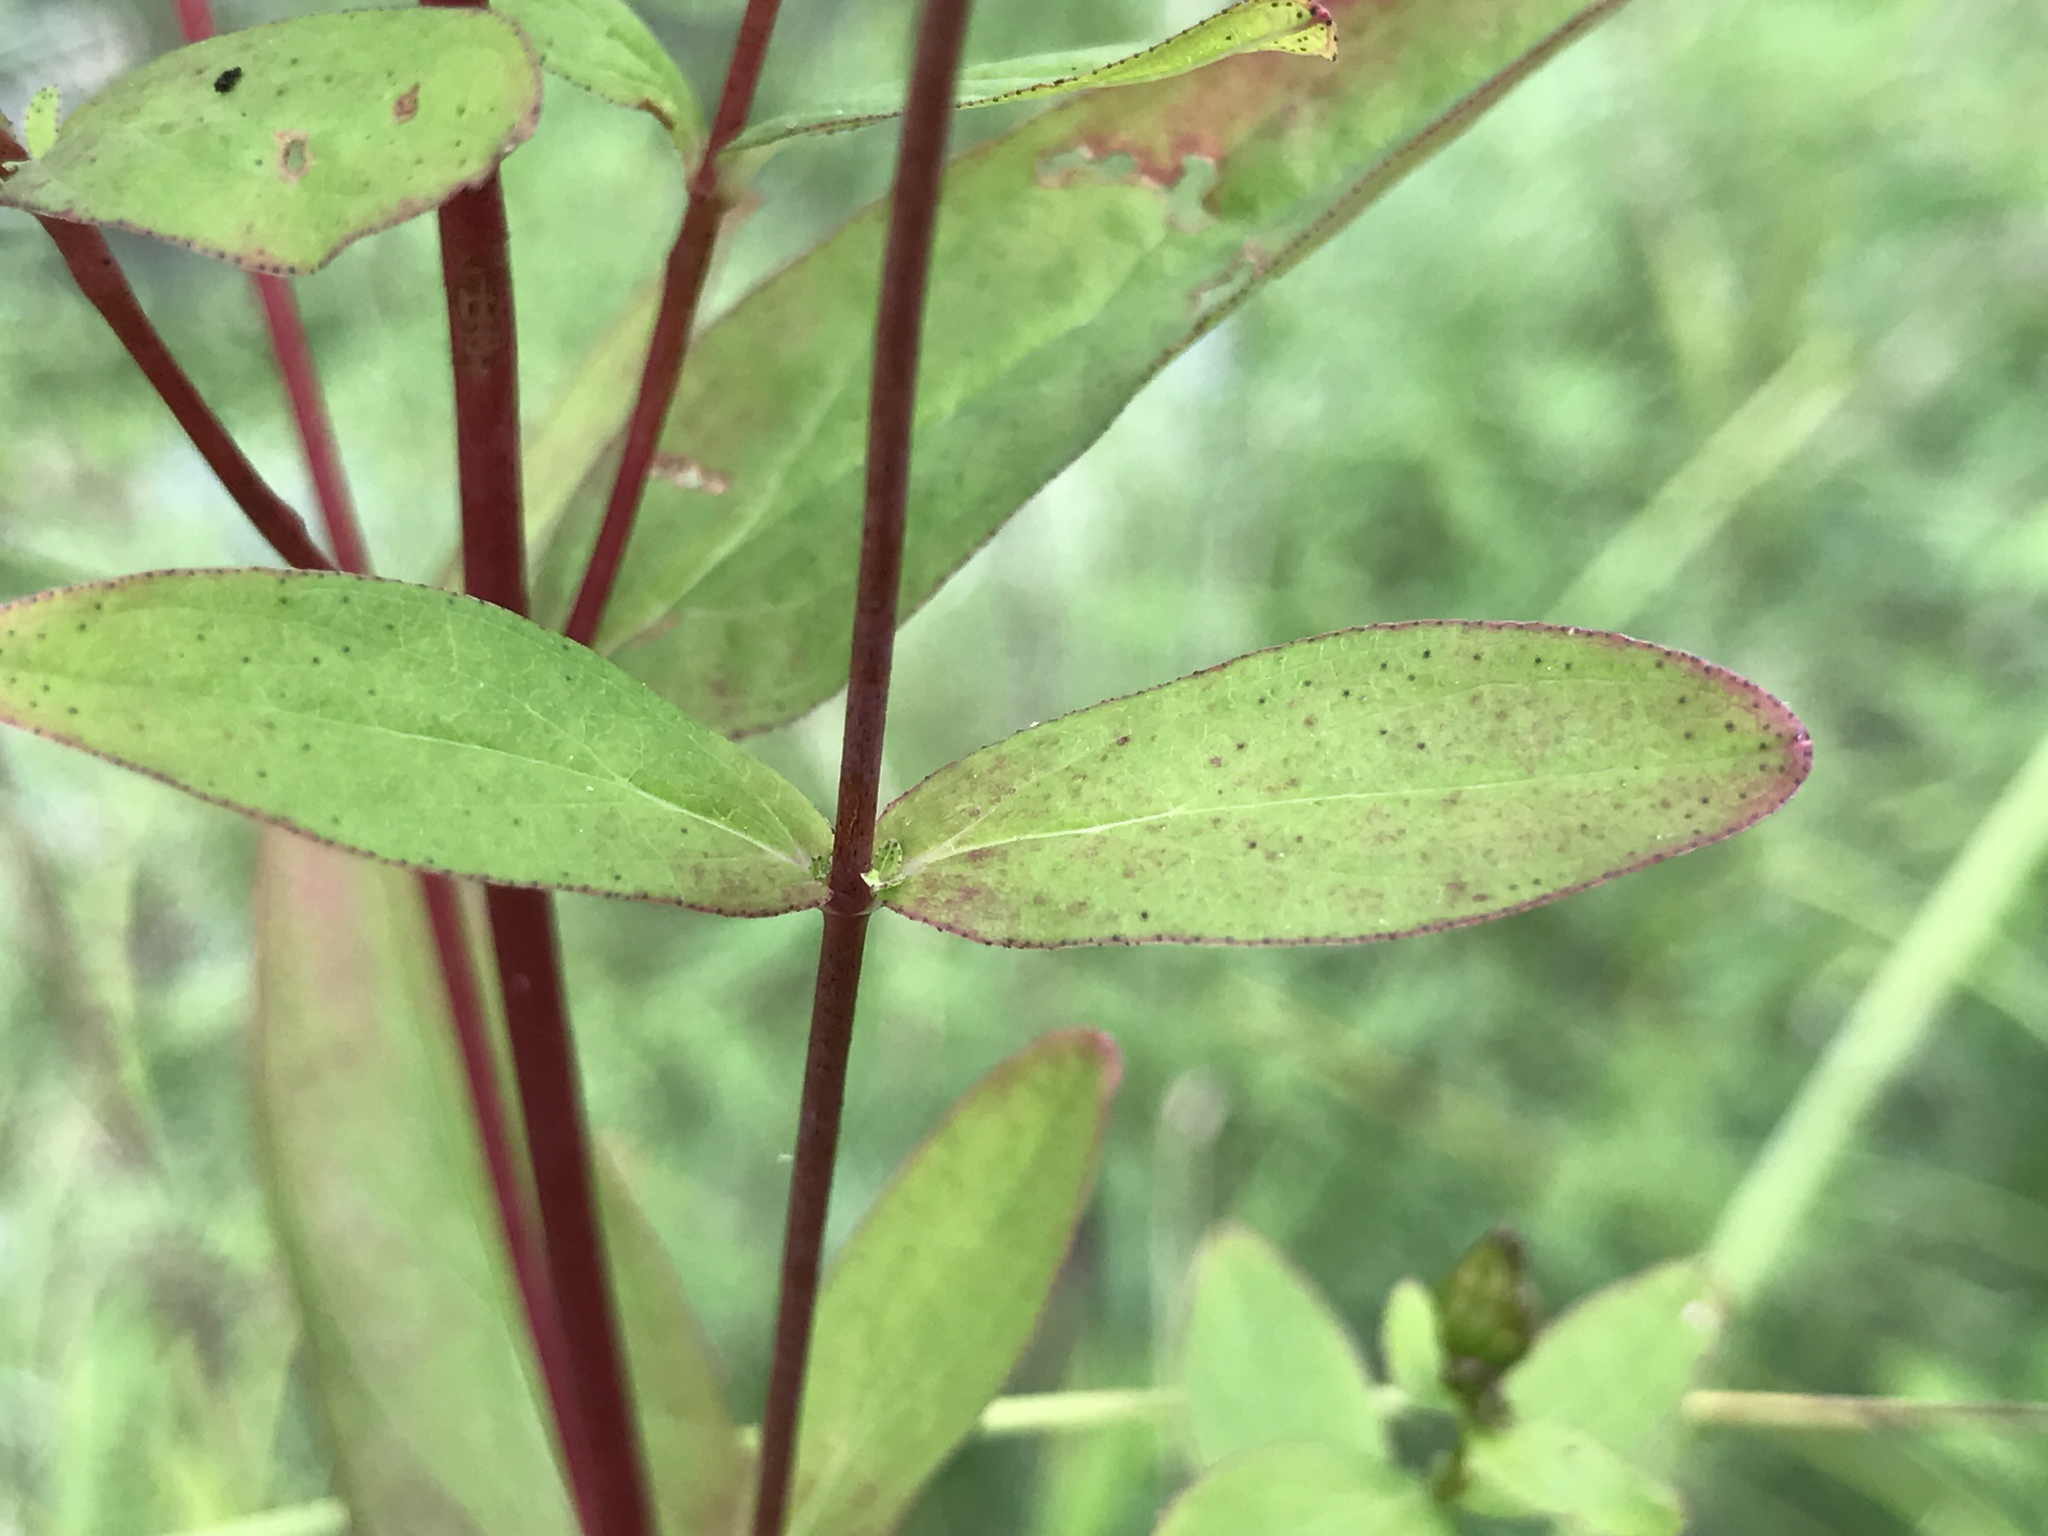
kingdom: Plantae
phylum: Tracheophyta
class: Magnoliopsida
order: Malpighiales
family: Hypericaceae
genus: Hypericum
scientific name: Hypericum punctatum
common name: Spotted st. john's-wort
